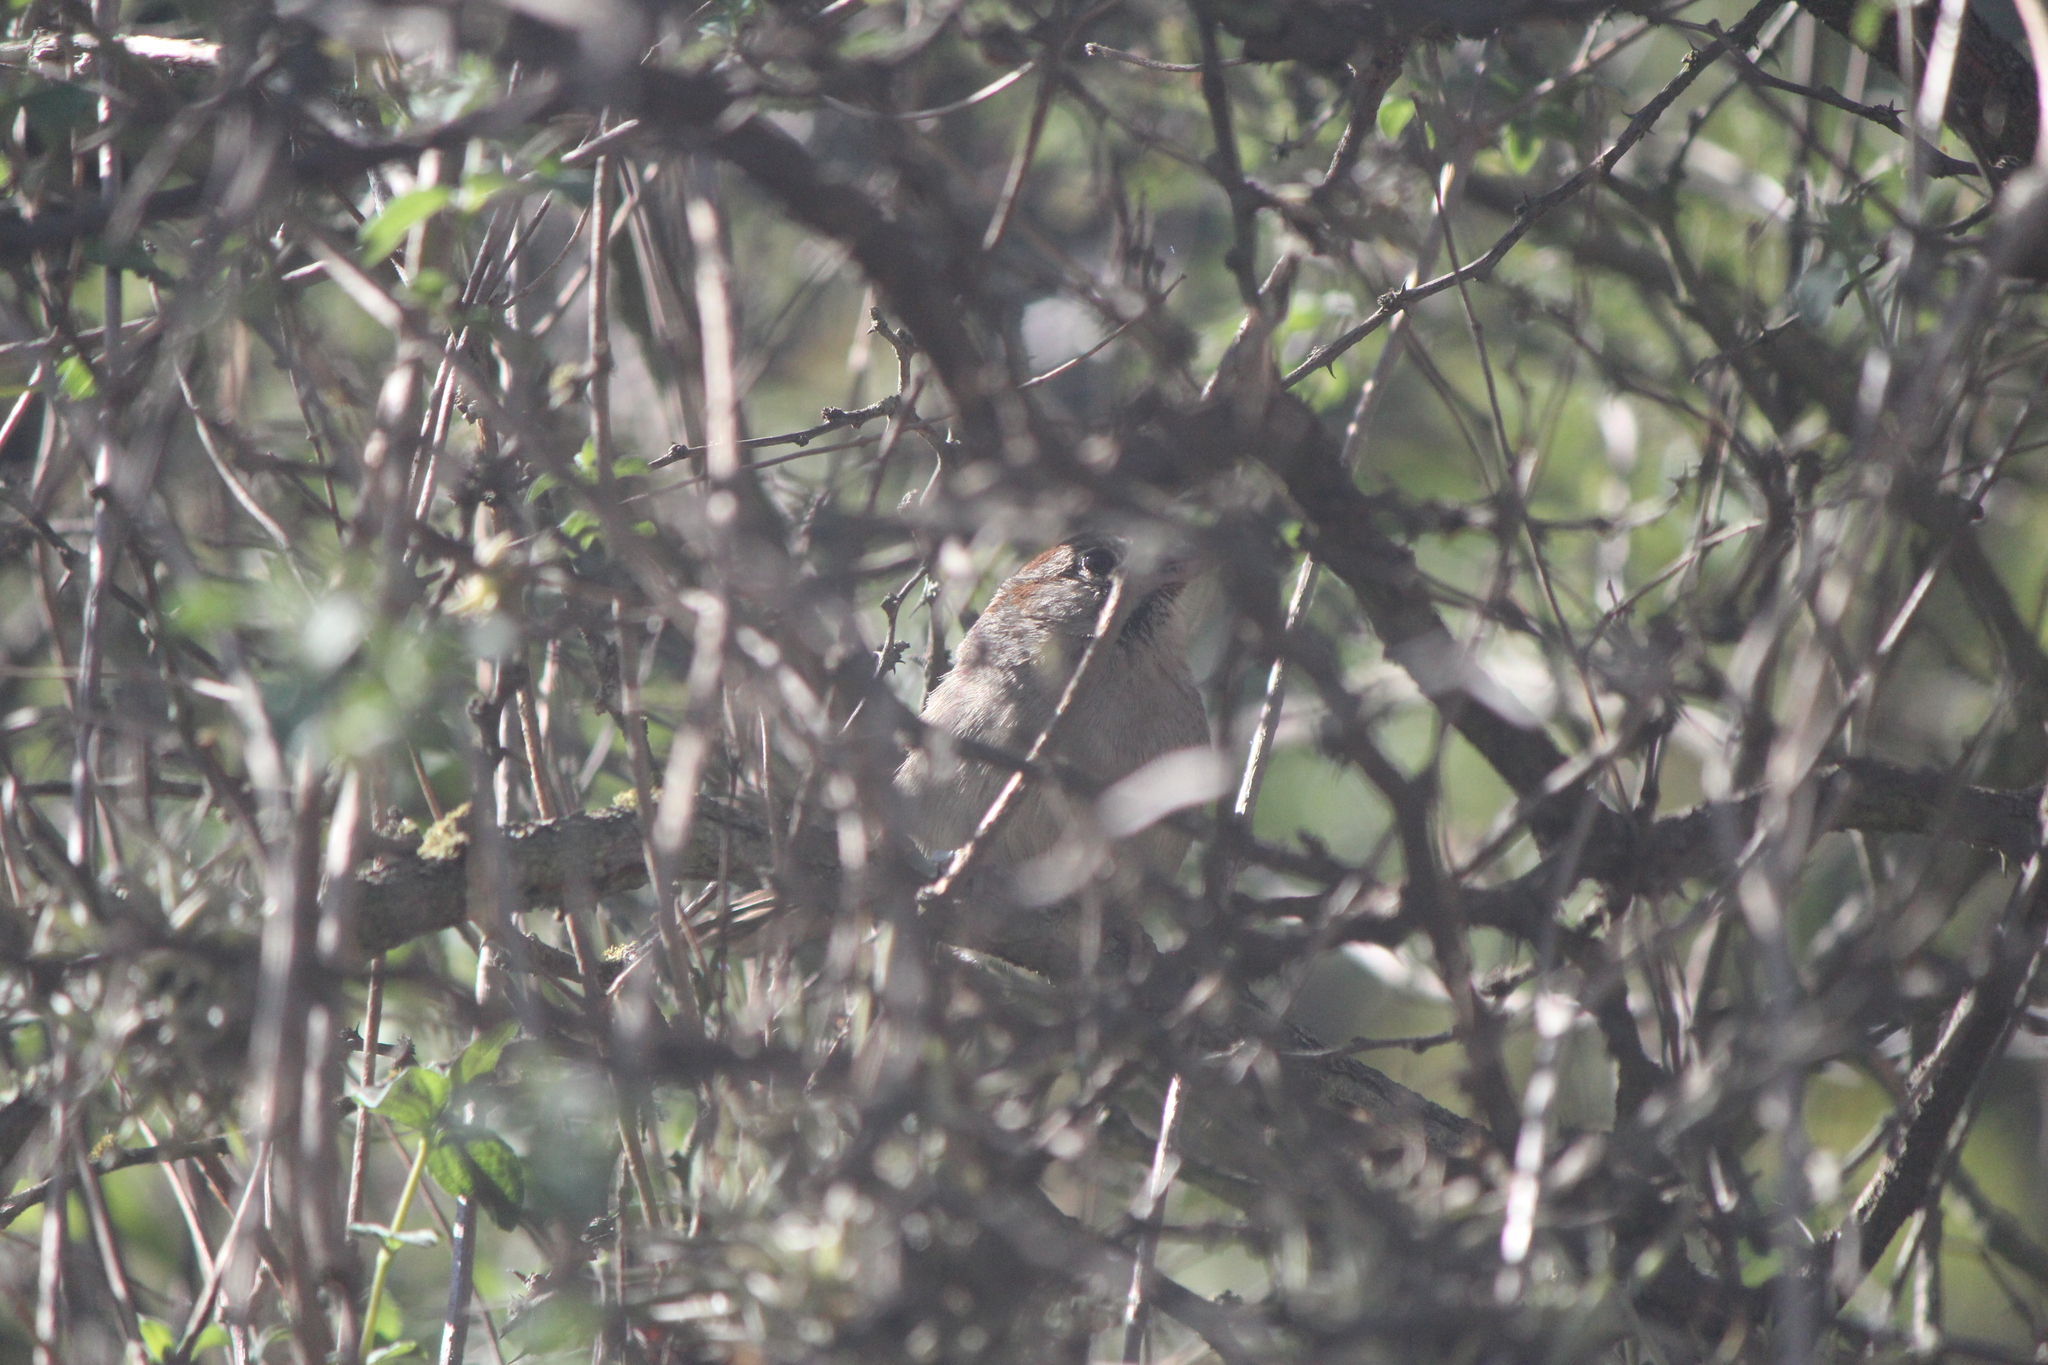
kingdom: Animalia
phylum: Chordata
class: Aves
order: Passeriformes
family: Passerellidae
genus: Aimophila
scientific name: Aimophila ruficeps
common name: Rufous-crowned sparrow
